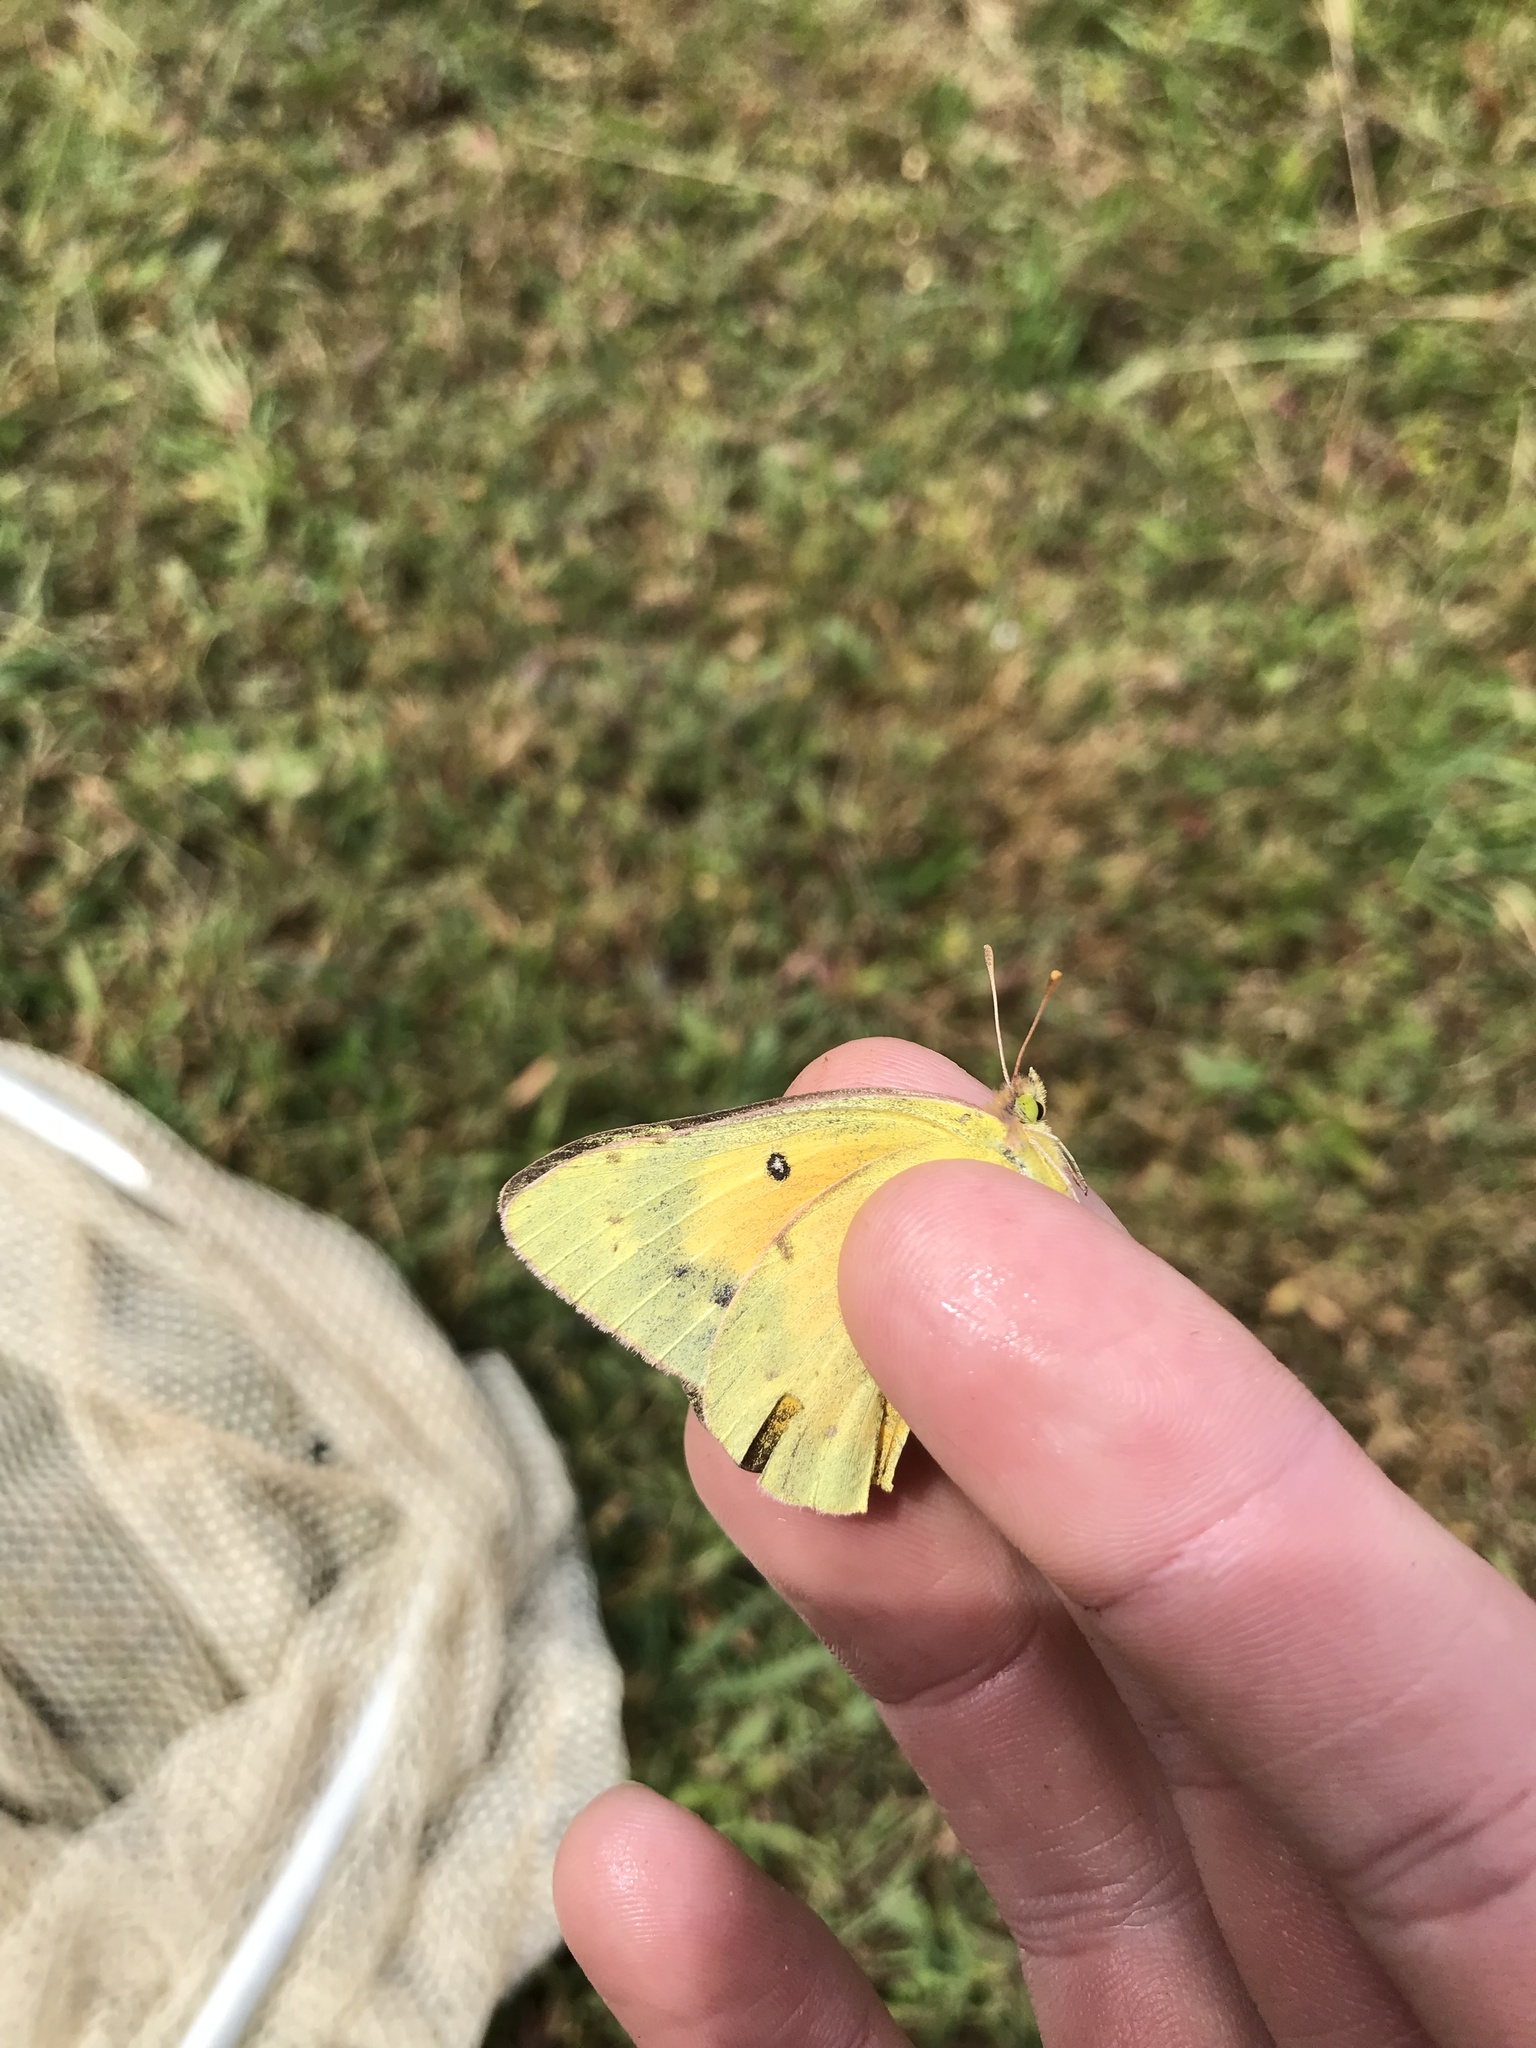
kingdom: Animalia
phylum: Arthropoda
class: Insecta
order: Lepidoptera
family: Pieridae
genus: Colias
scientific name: Colias eurytheme
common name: Alfalfa butterfly
